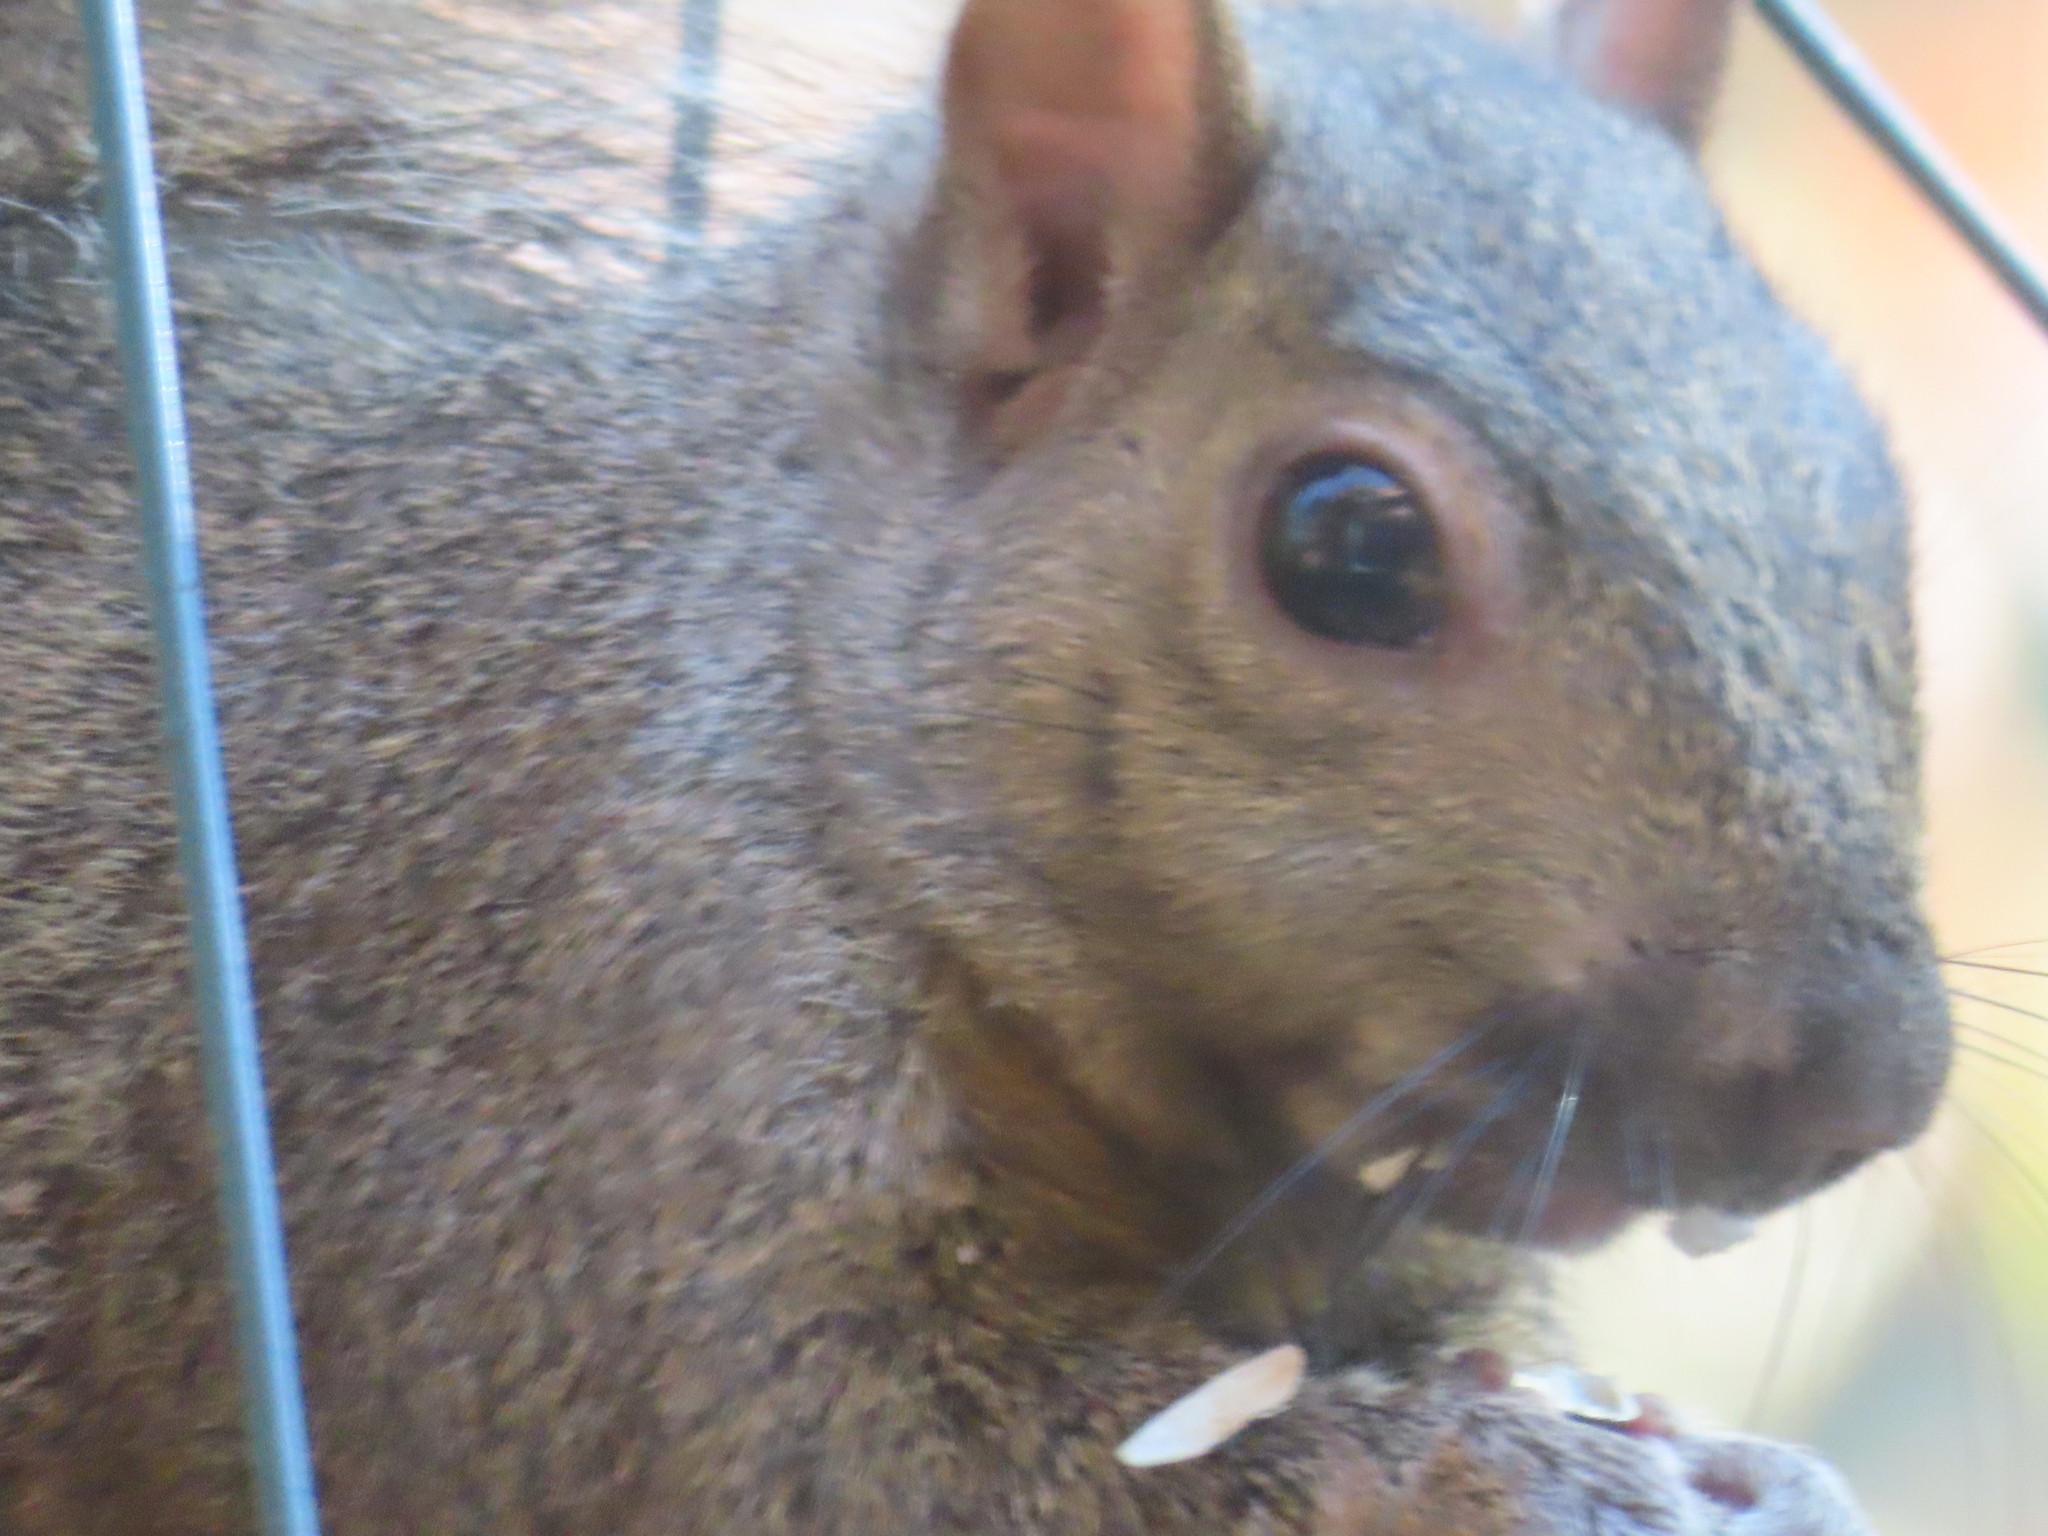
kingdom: Animalia
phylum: Chordata
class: Mammalia
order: Rodentia
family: Sciuridae
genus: Sciurus
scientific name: Sciurus carolinensis
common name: Eastern gray squirrel
